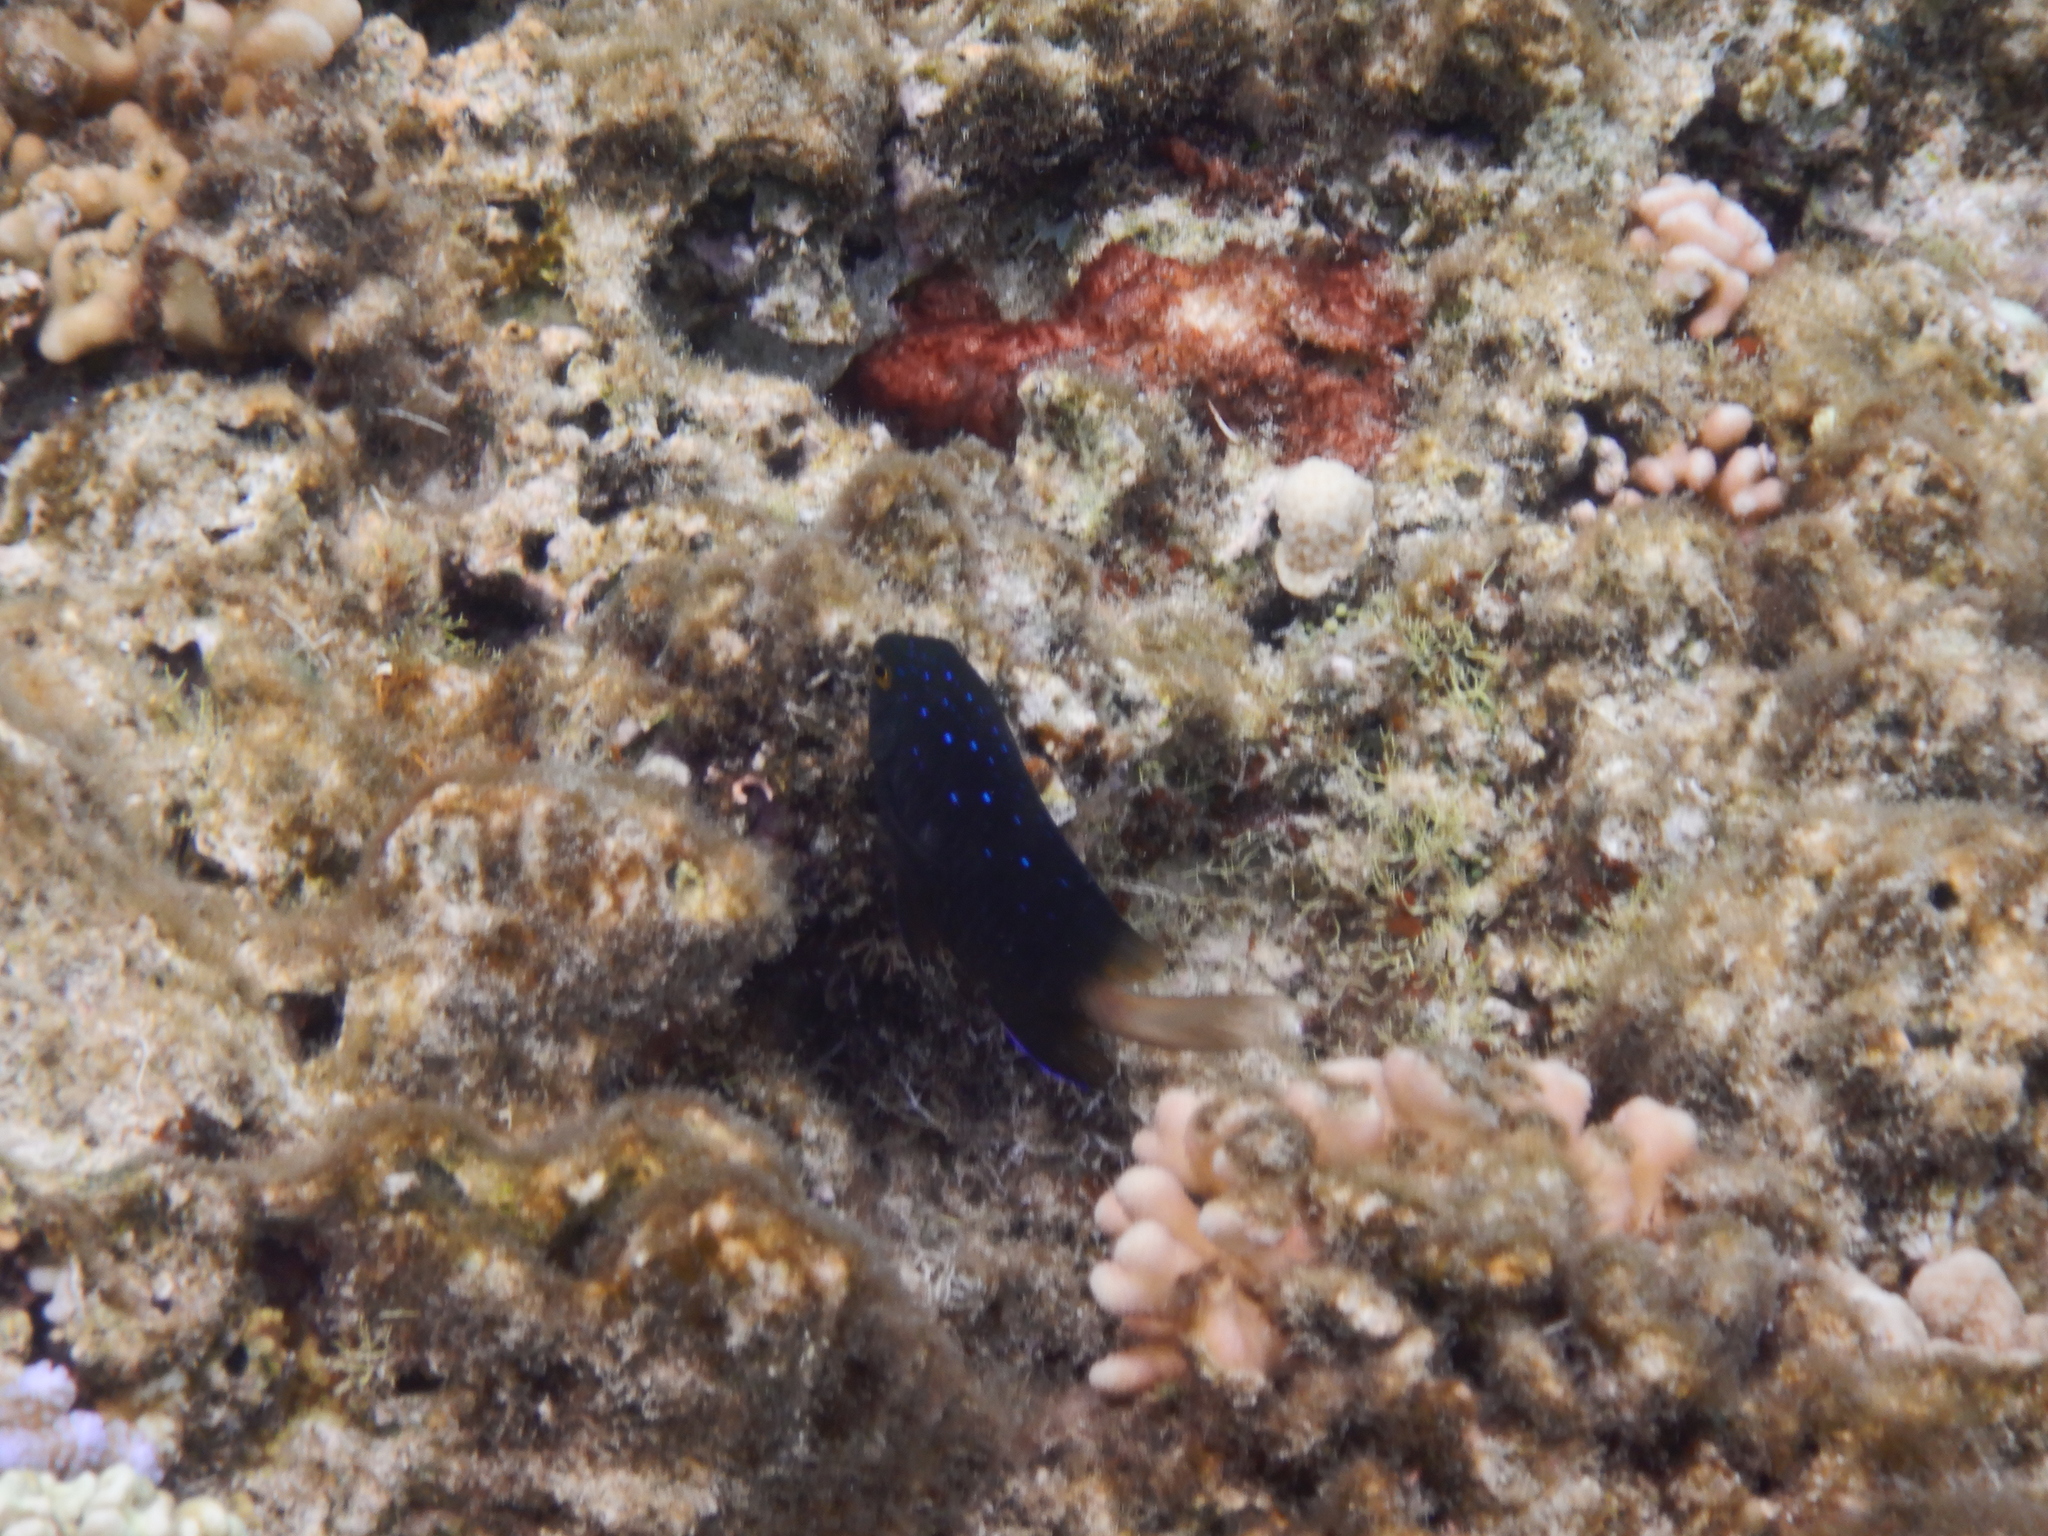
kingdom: Animalia
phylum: Chordata
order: Perciformes
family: Pomacentridae
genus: Plectroglyphidodon
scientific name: Plectroglyphidodon lacrymatus
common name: Jewel damsel
